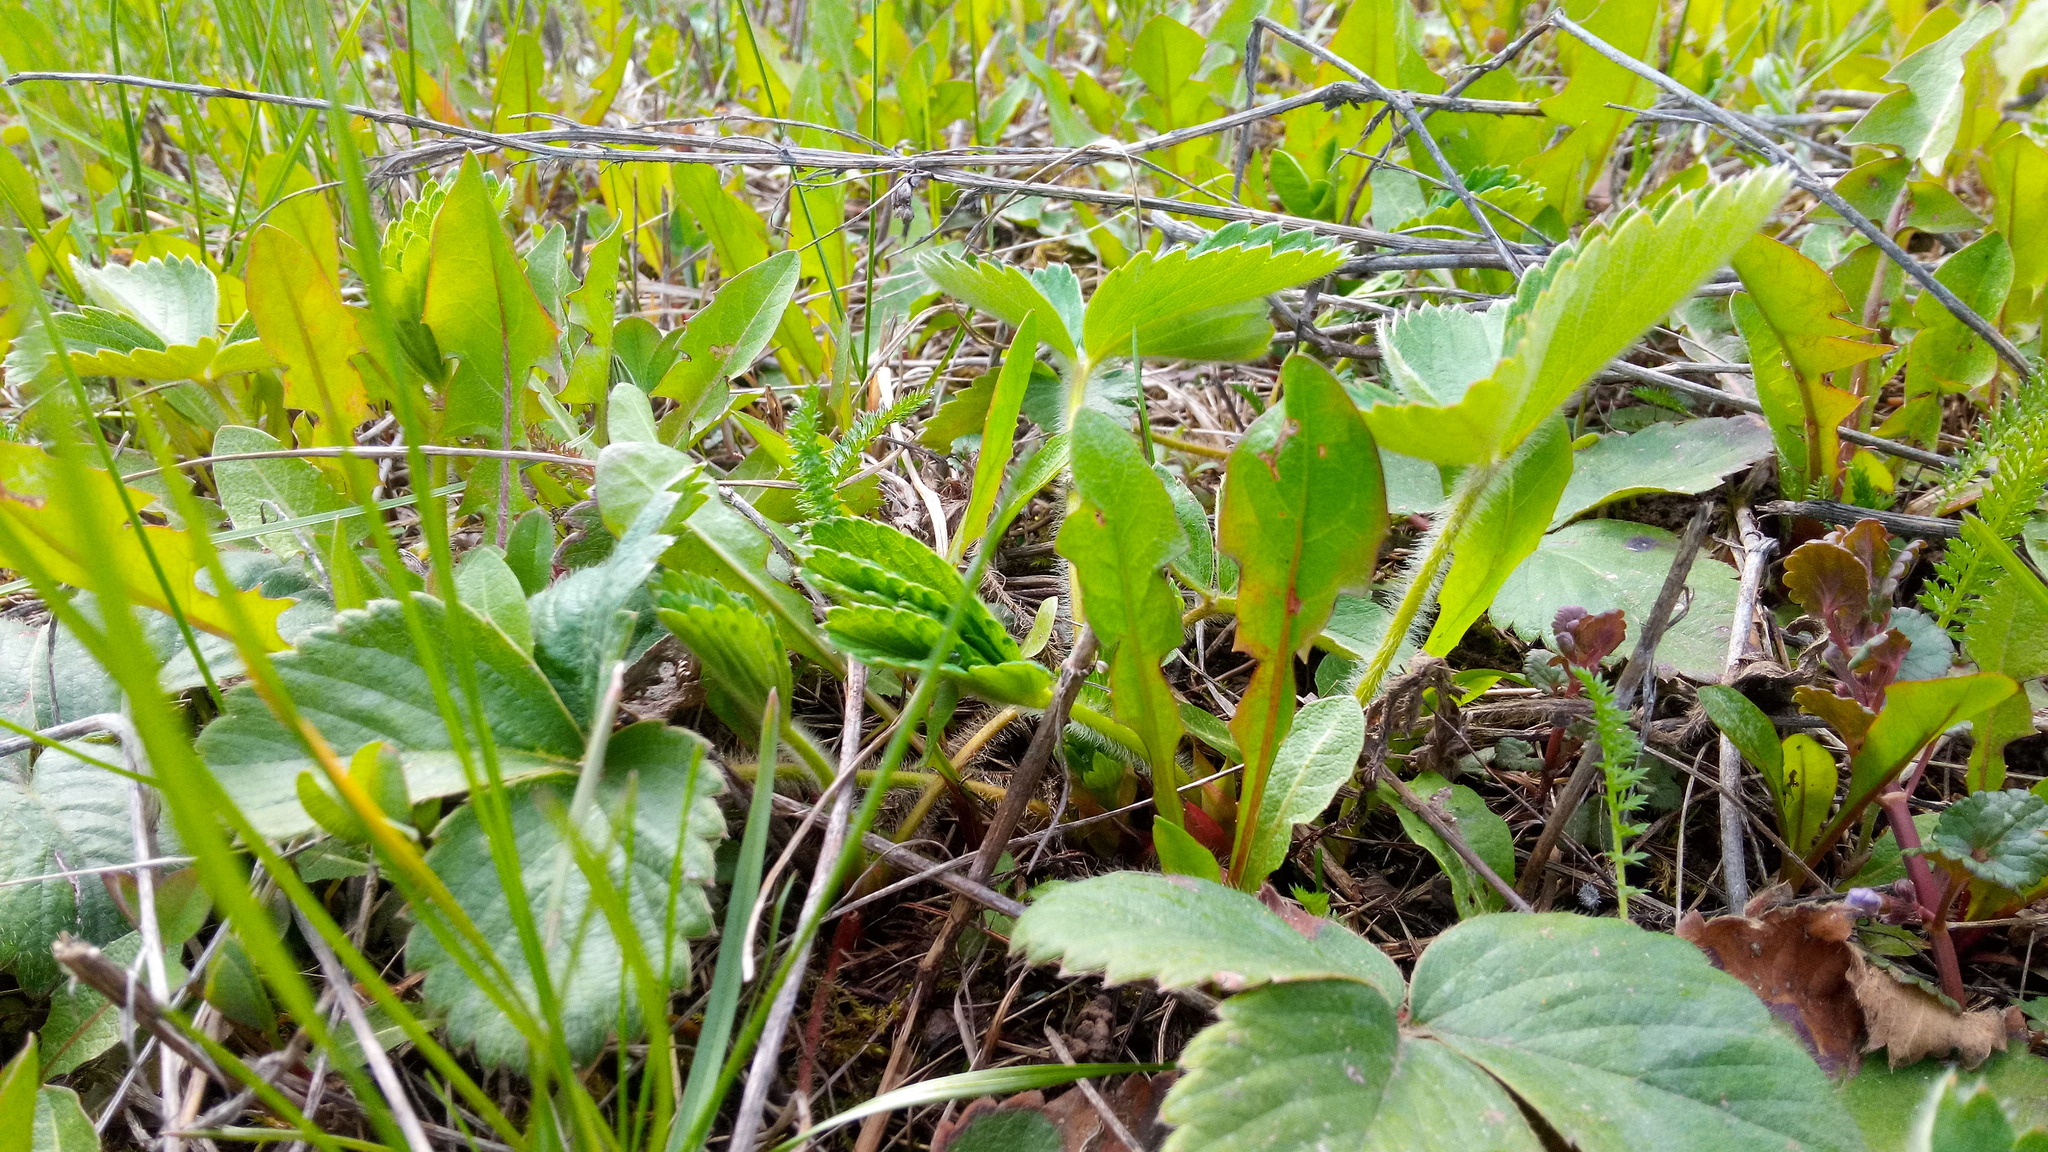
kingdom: Plantae
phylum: Tracheophyta
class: Magnoliopsida
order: Rosales
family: Rosaceae
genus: Fragaria
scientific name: Fragaria viridis
